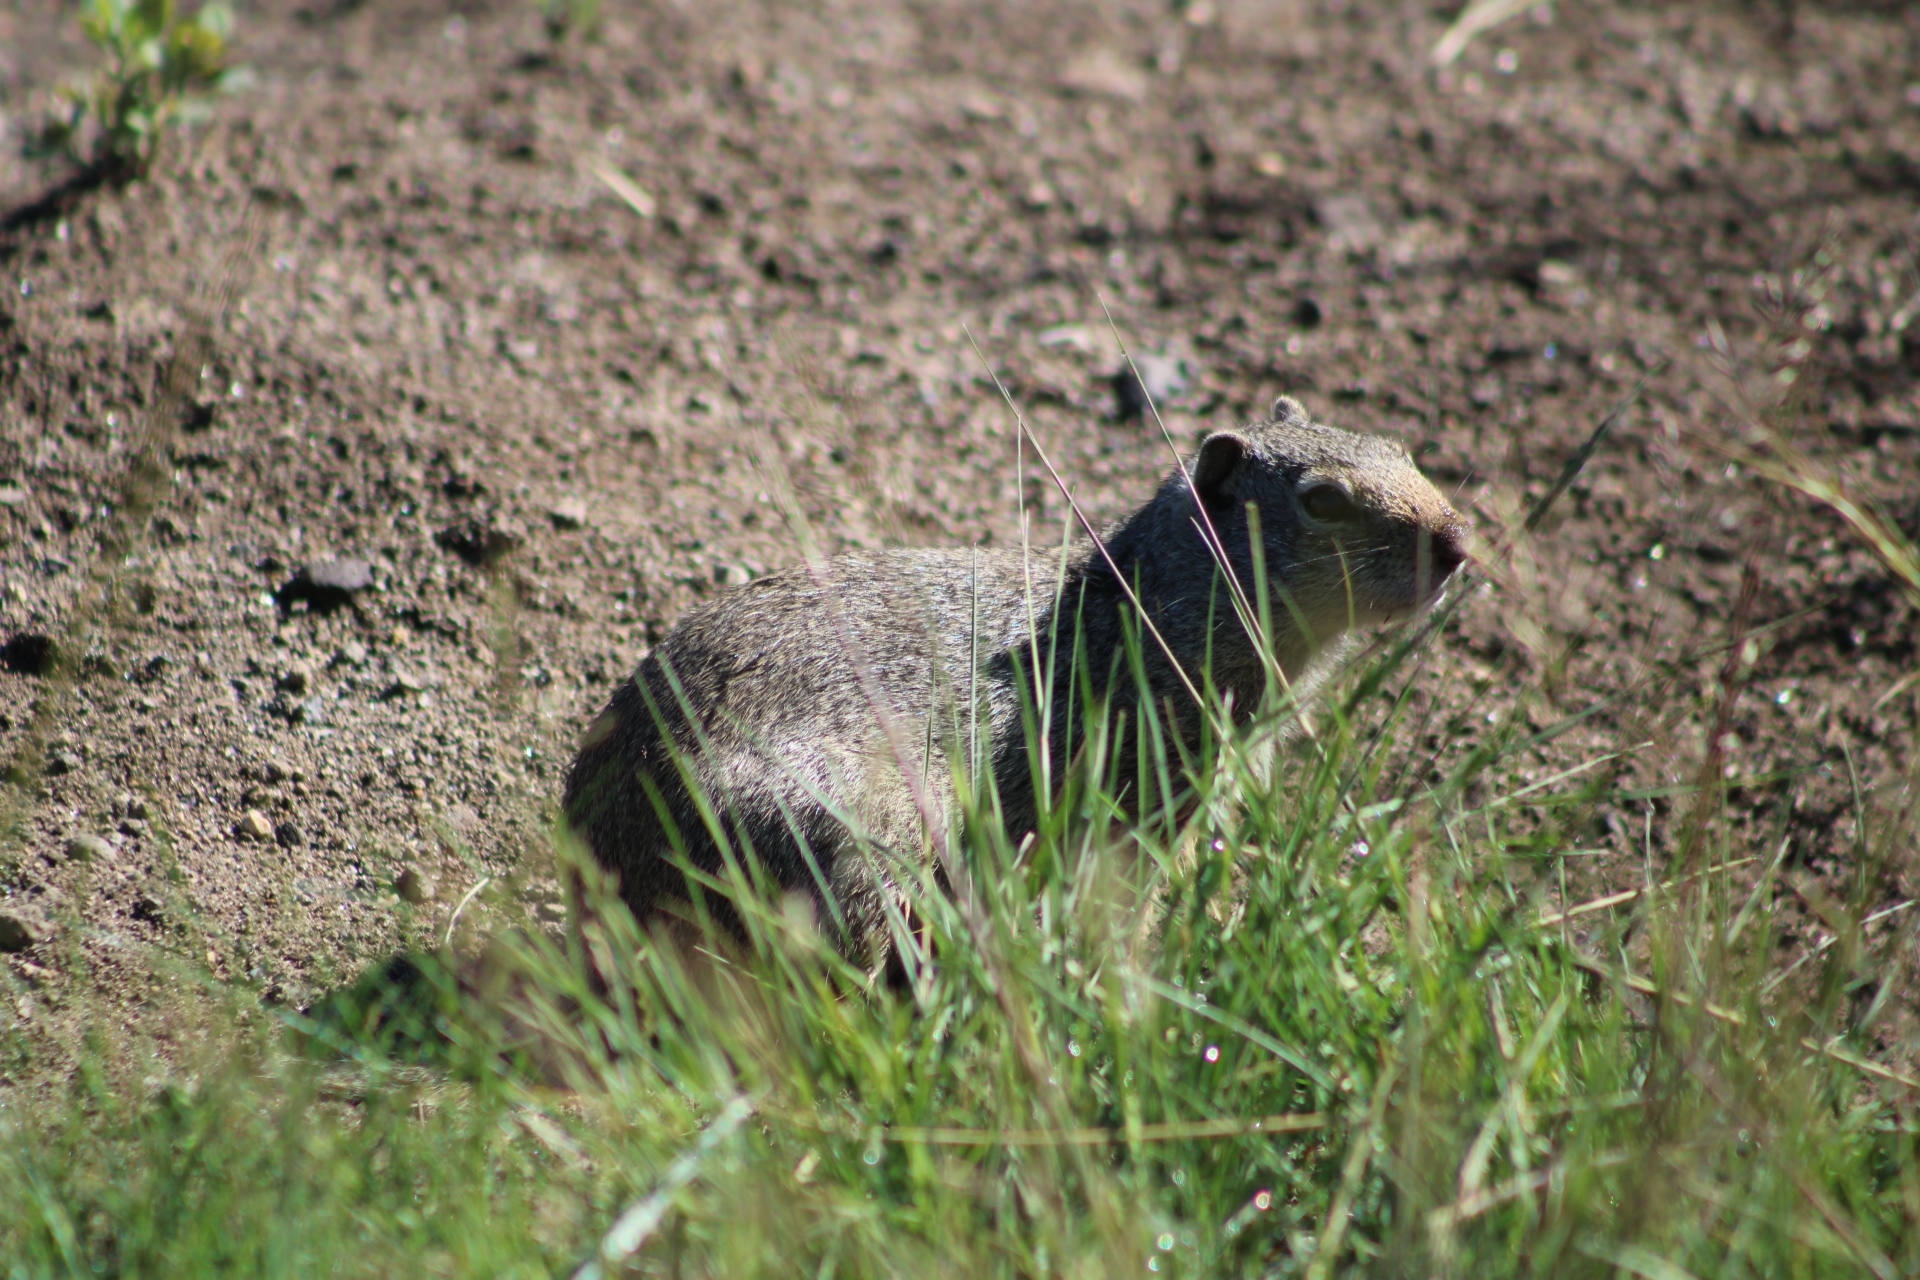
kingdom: Animalia
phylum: Chordata
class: Mammalia
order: Rodentia
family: Sciuridae
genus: Urocitellus
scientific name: Urocitellus armatus
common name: Uinta ground squirrel
